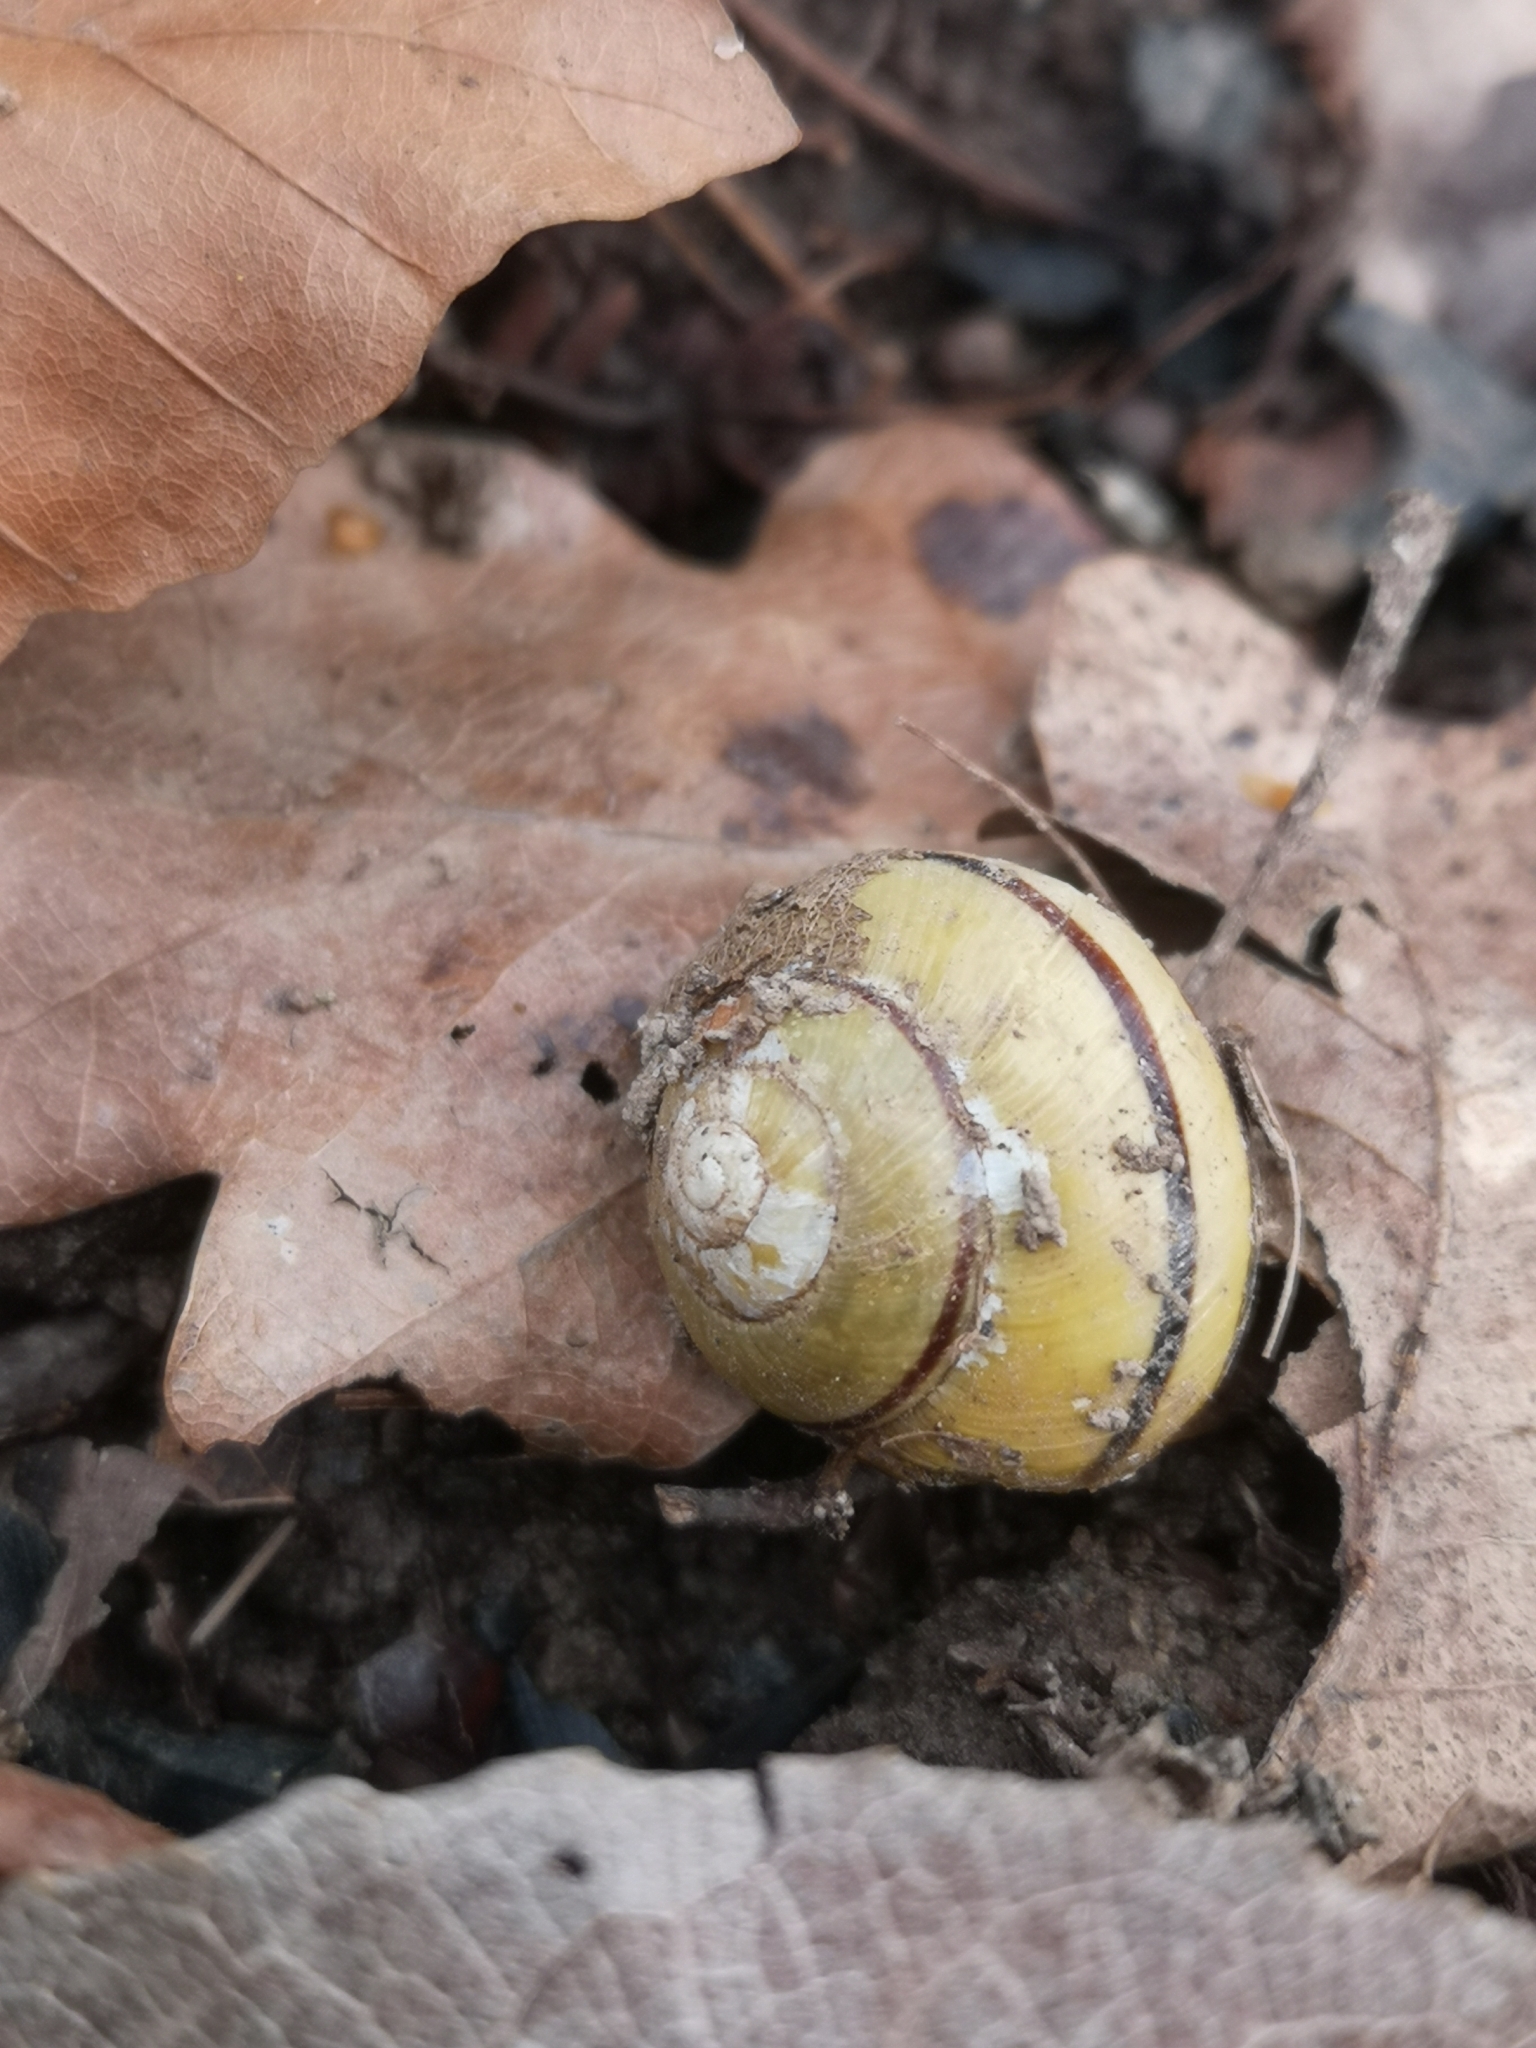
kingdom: Animalia
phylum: Mollusca
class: Gastropoda
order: Stylommatophora
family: Helicidae
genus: Cepaea
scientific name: Cepaea nemoralis
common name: Grovesnail
